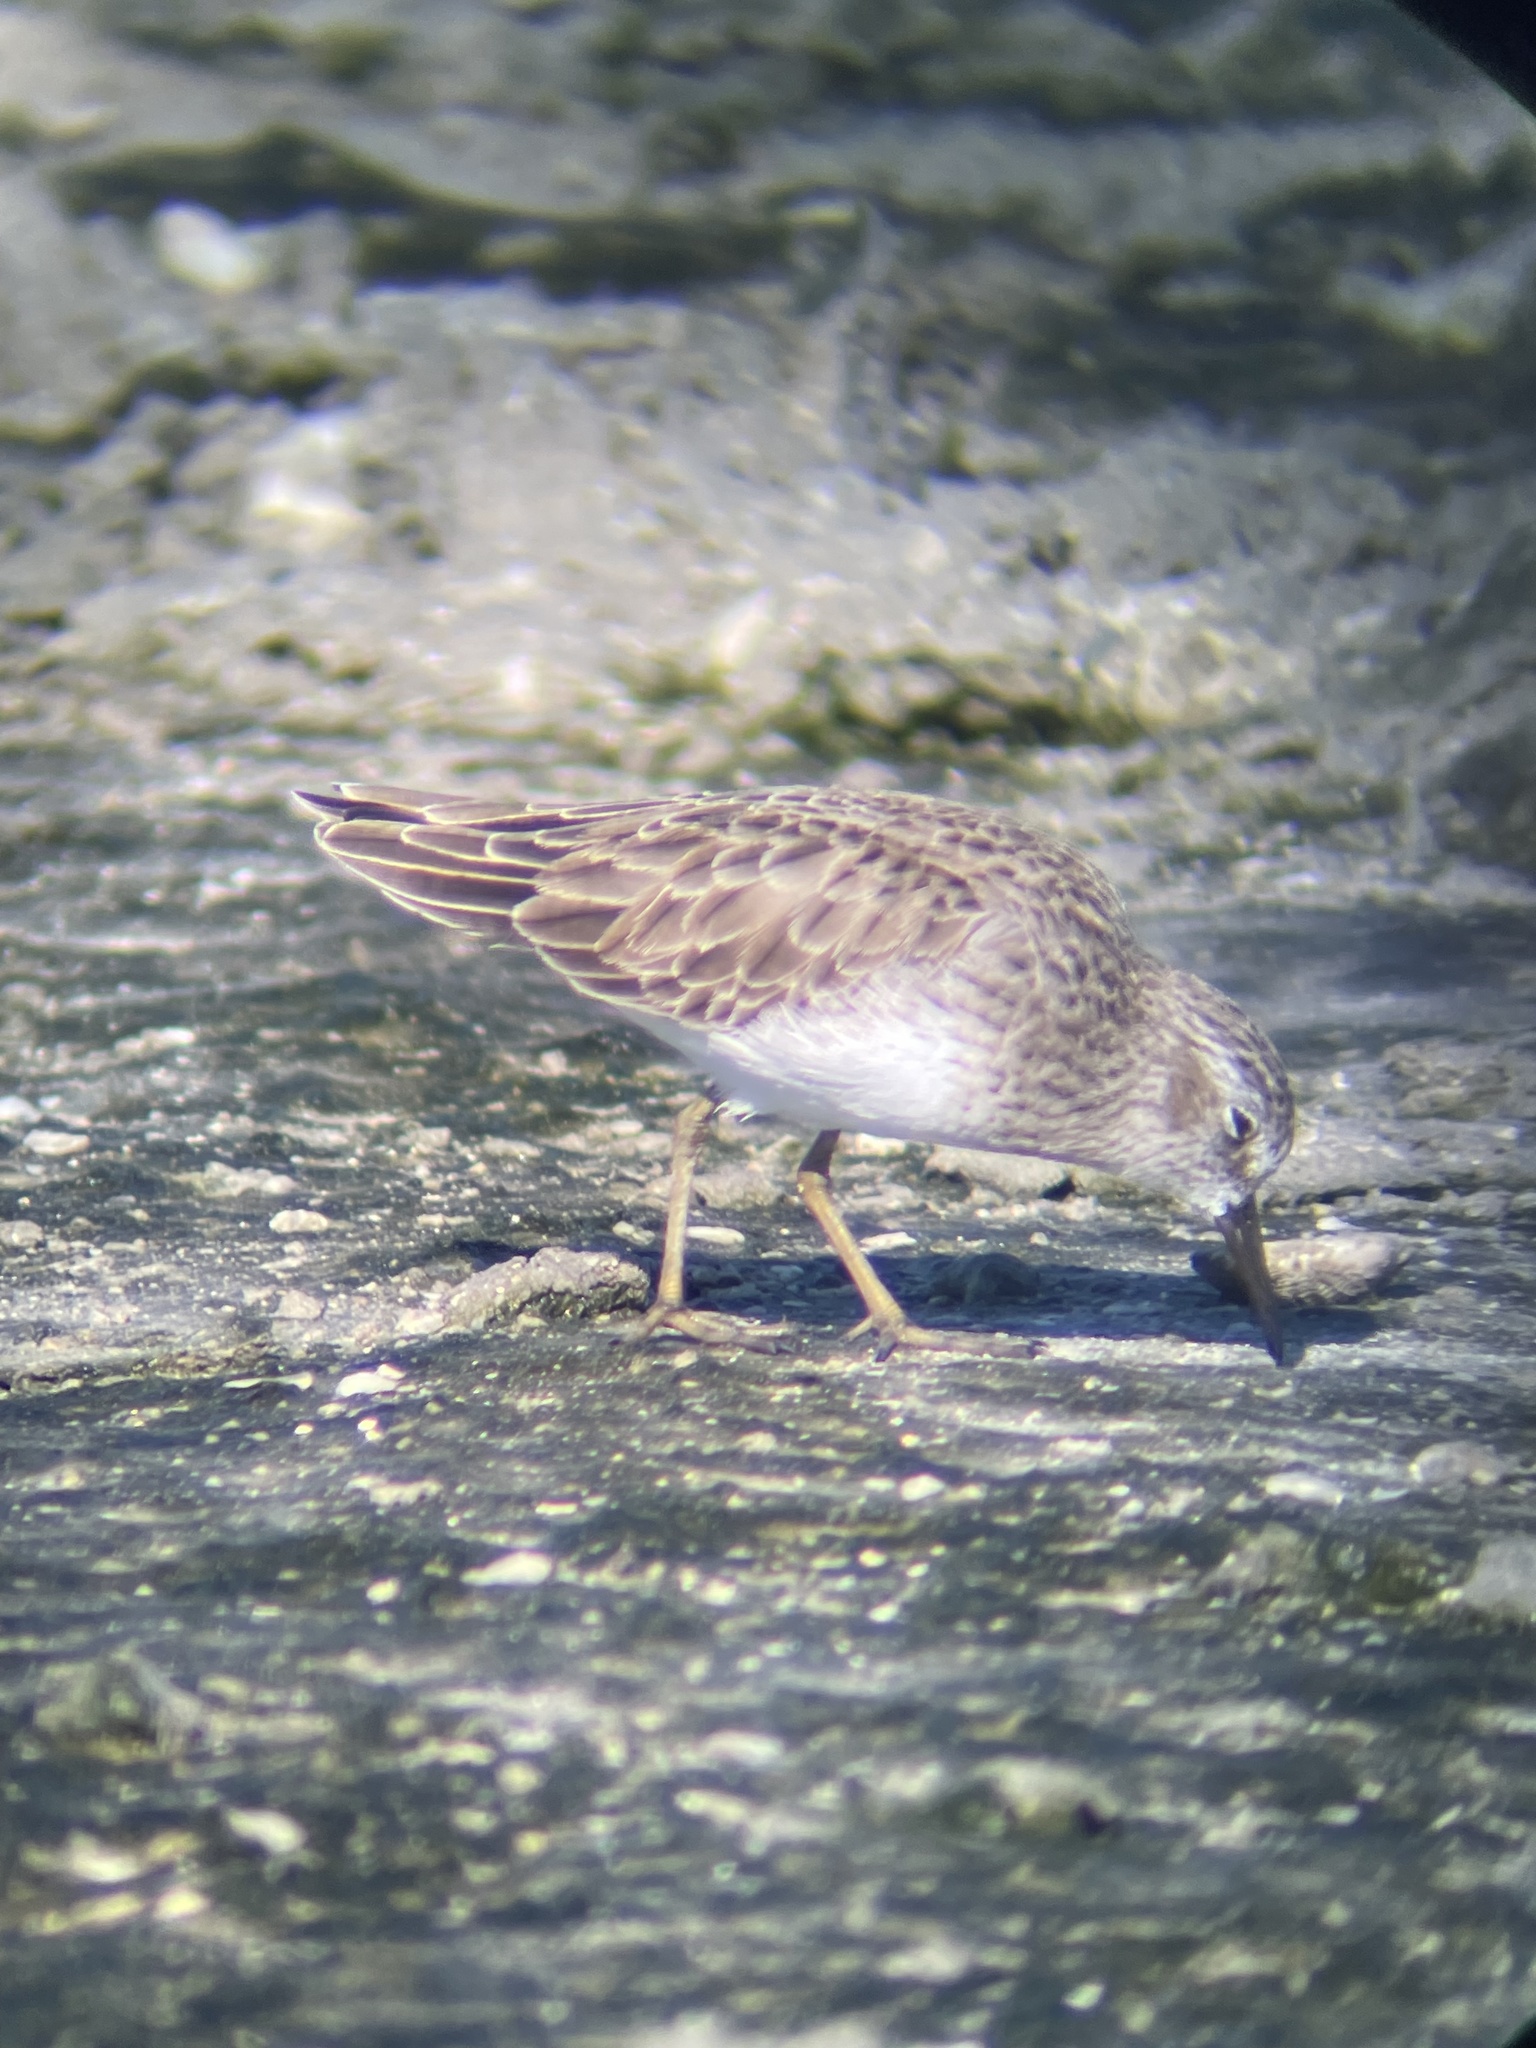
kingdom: Animalia
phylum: Chordata
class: Aves
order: Charadriiformes
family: Scolopacidae
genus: Calidris
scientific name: Calidris minutilla
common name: Least sandpiper
